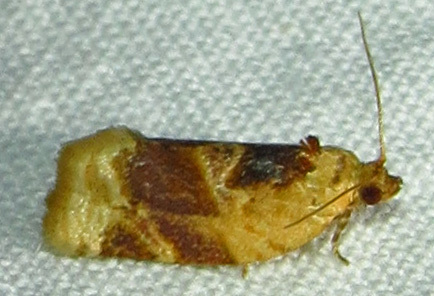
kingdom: Animalia
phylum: Arthropoda
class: Insecta
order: Lepidoptera
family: Tortricidae
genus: Argyrotaenia
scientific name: Argyrotaenia velutinana
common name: Red-banded leafroller moth
